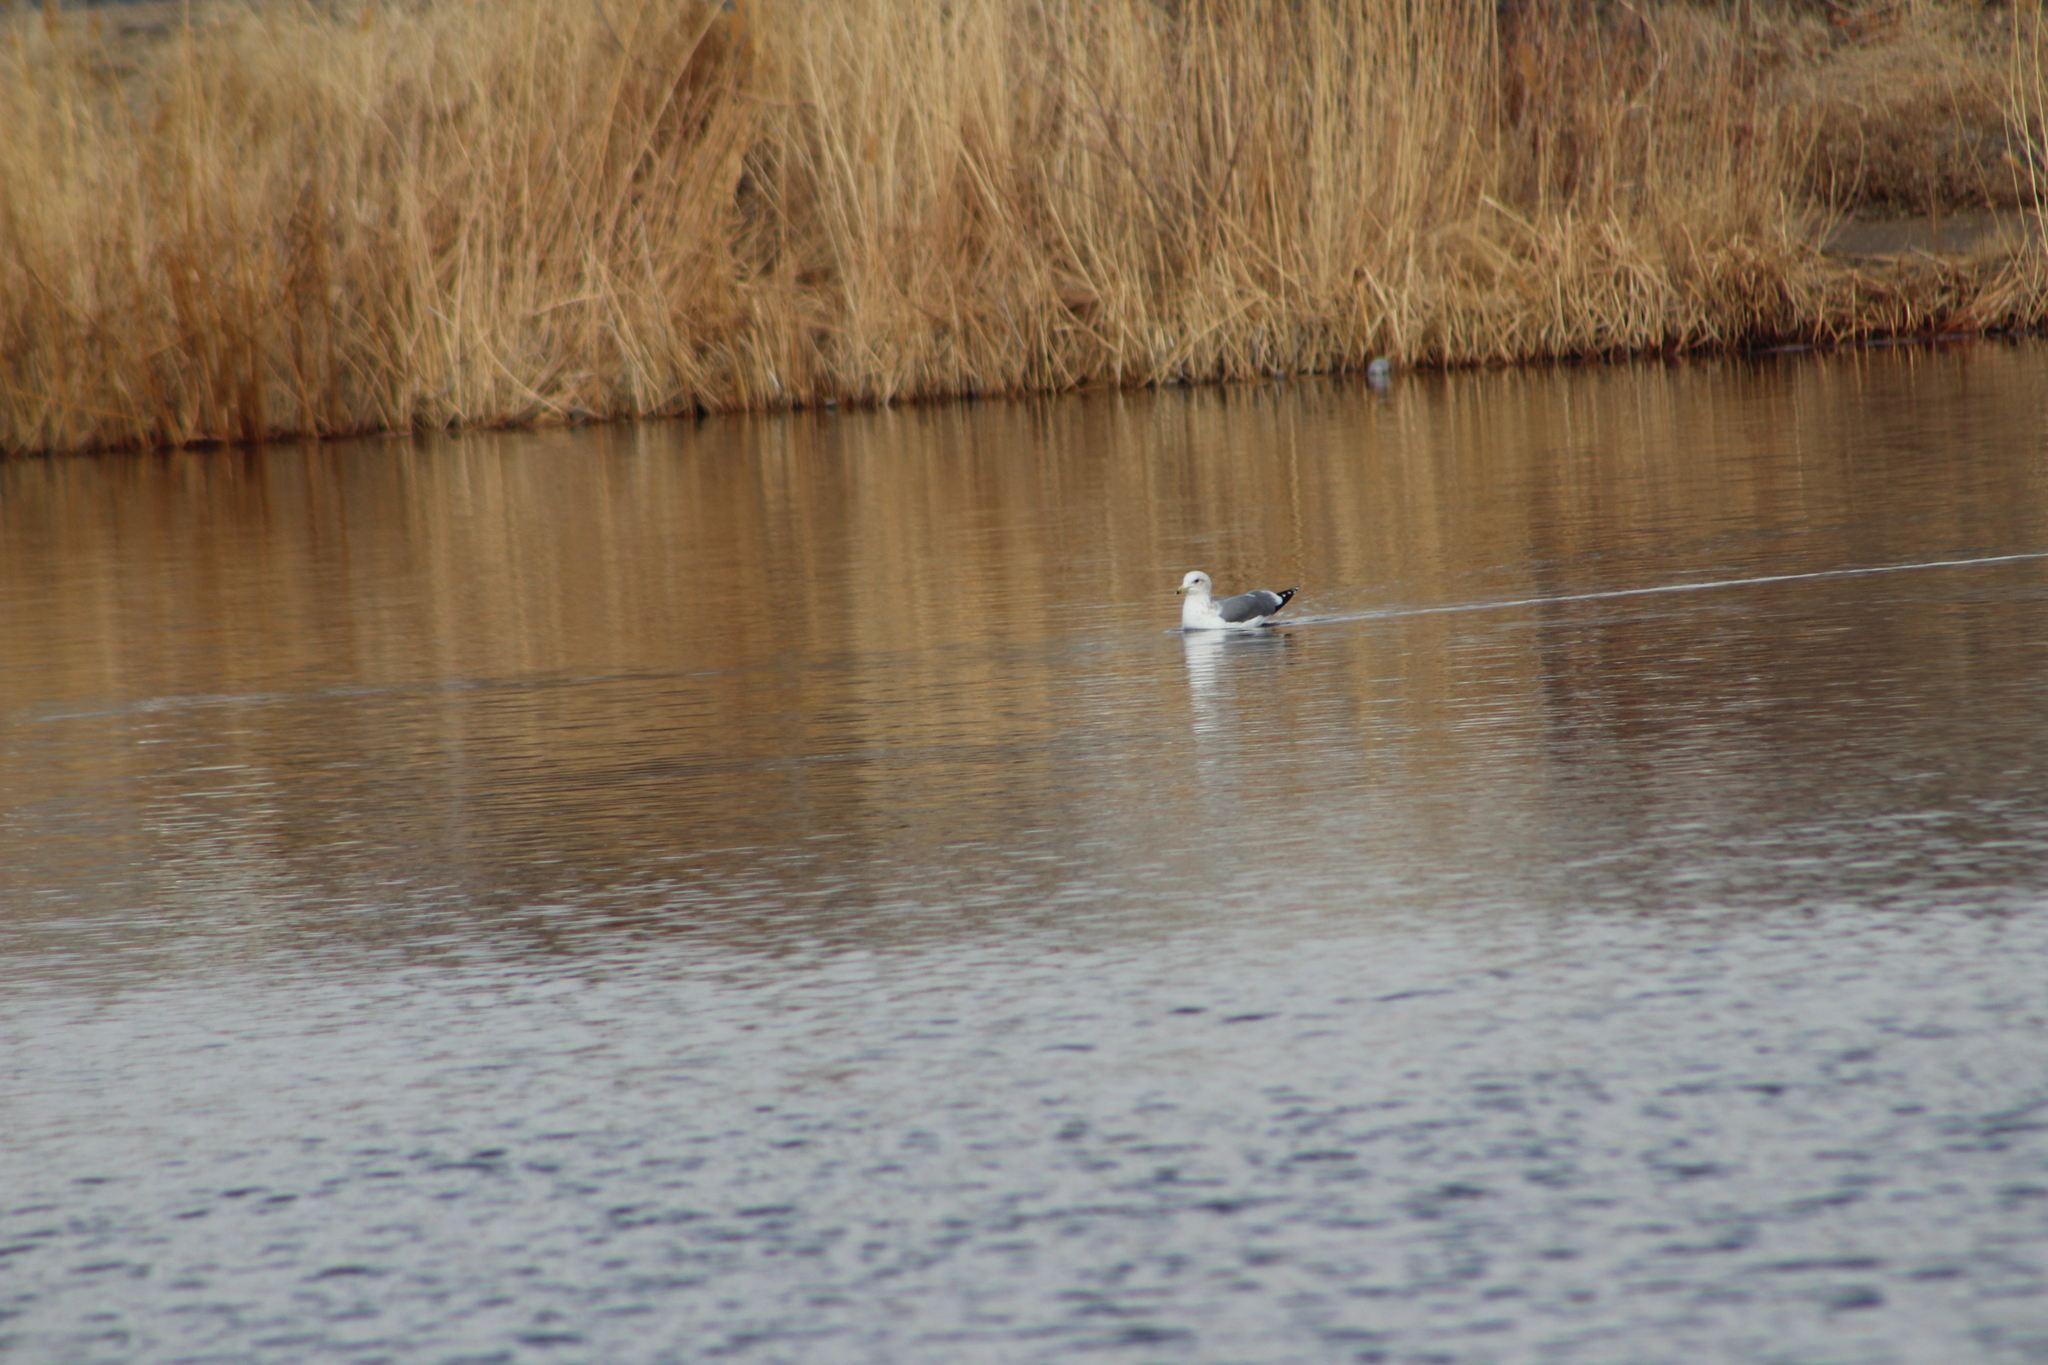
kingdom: Animalia
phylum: Chordata
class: Aves
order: Charadriiformes
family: Laridae
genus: Larus
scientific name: Larus californicus
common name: California gull
